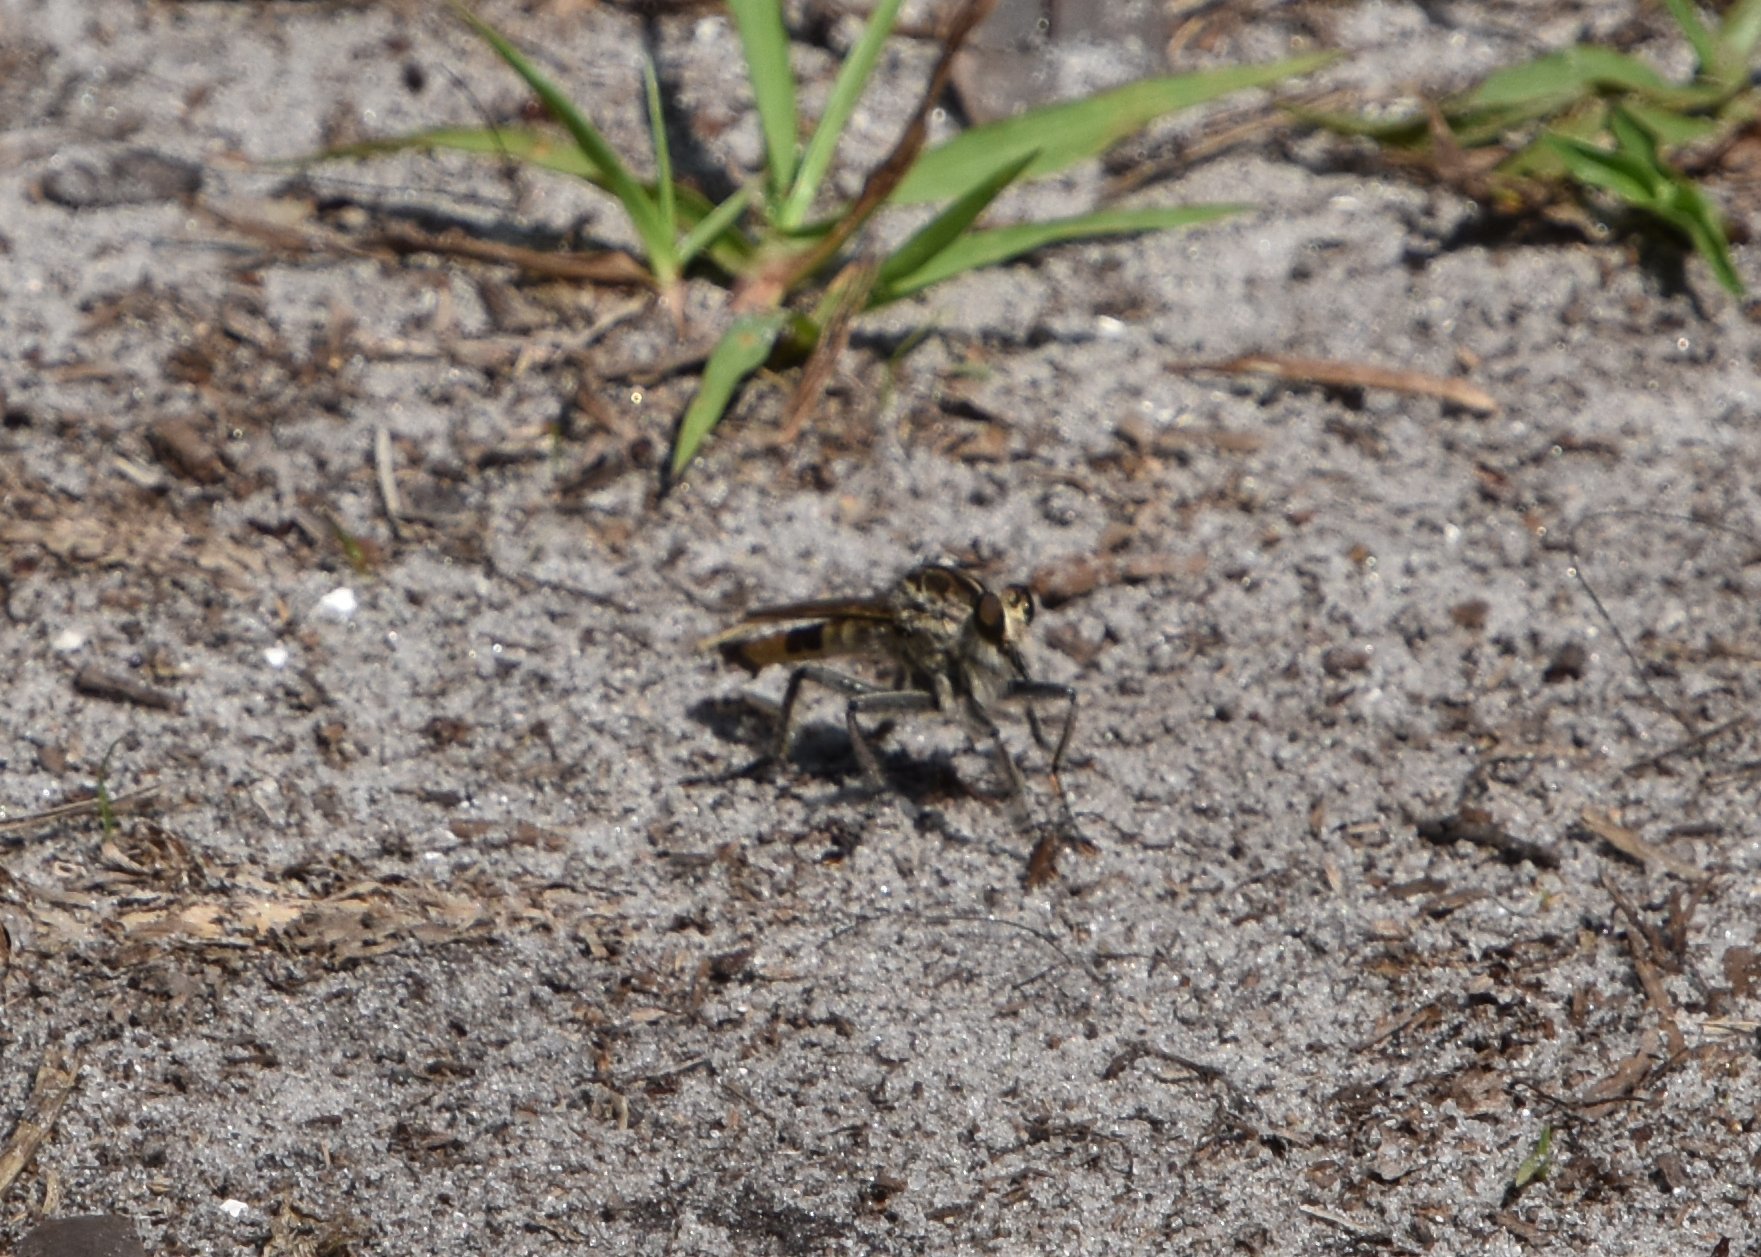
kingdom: Animalia
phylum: Arthropoda
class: Insecta
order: Diptera
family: Asilidae
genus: Triorla
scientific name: Triorla interrupta
